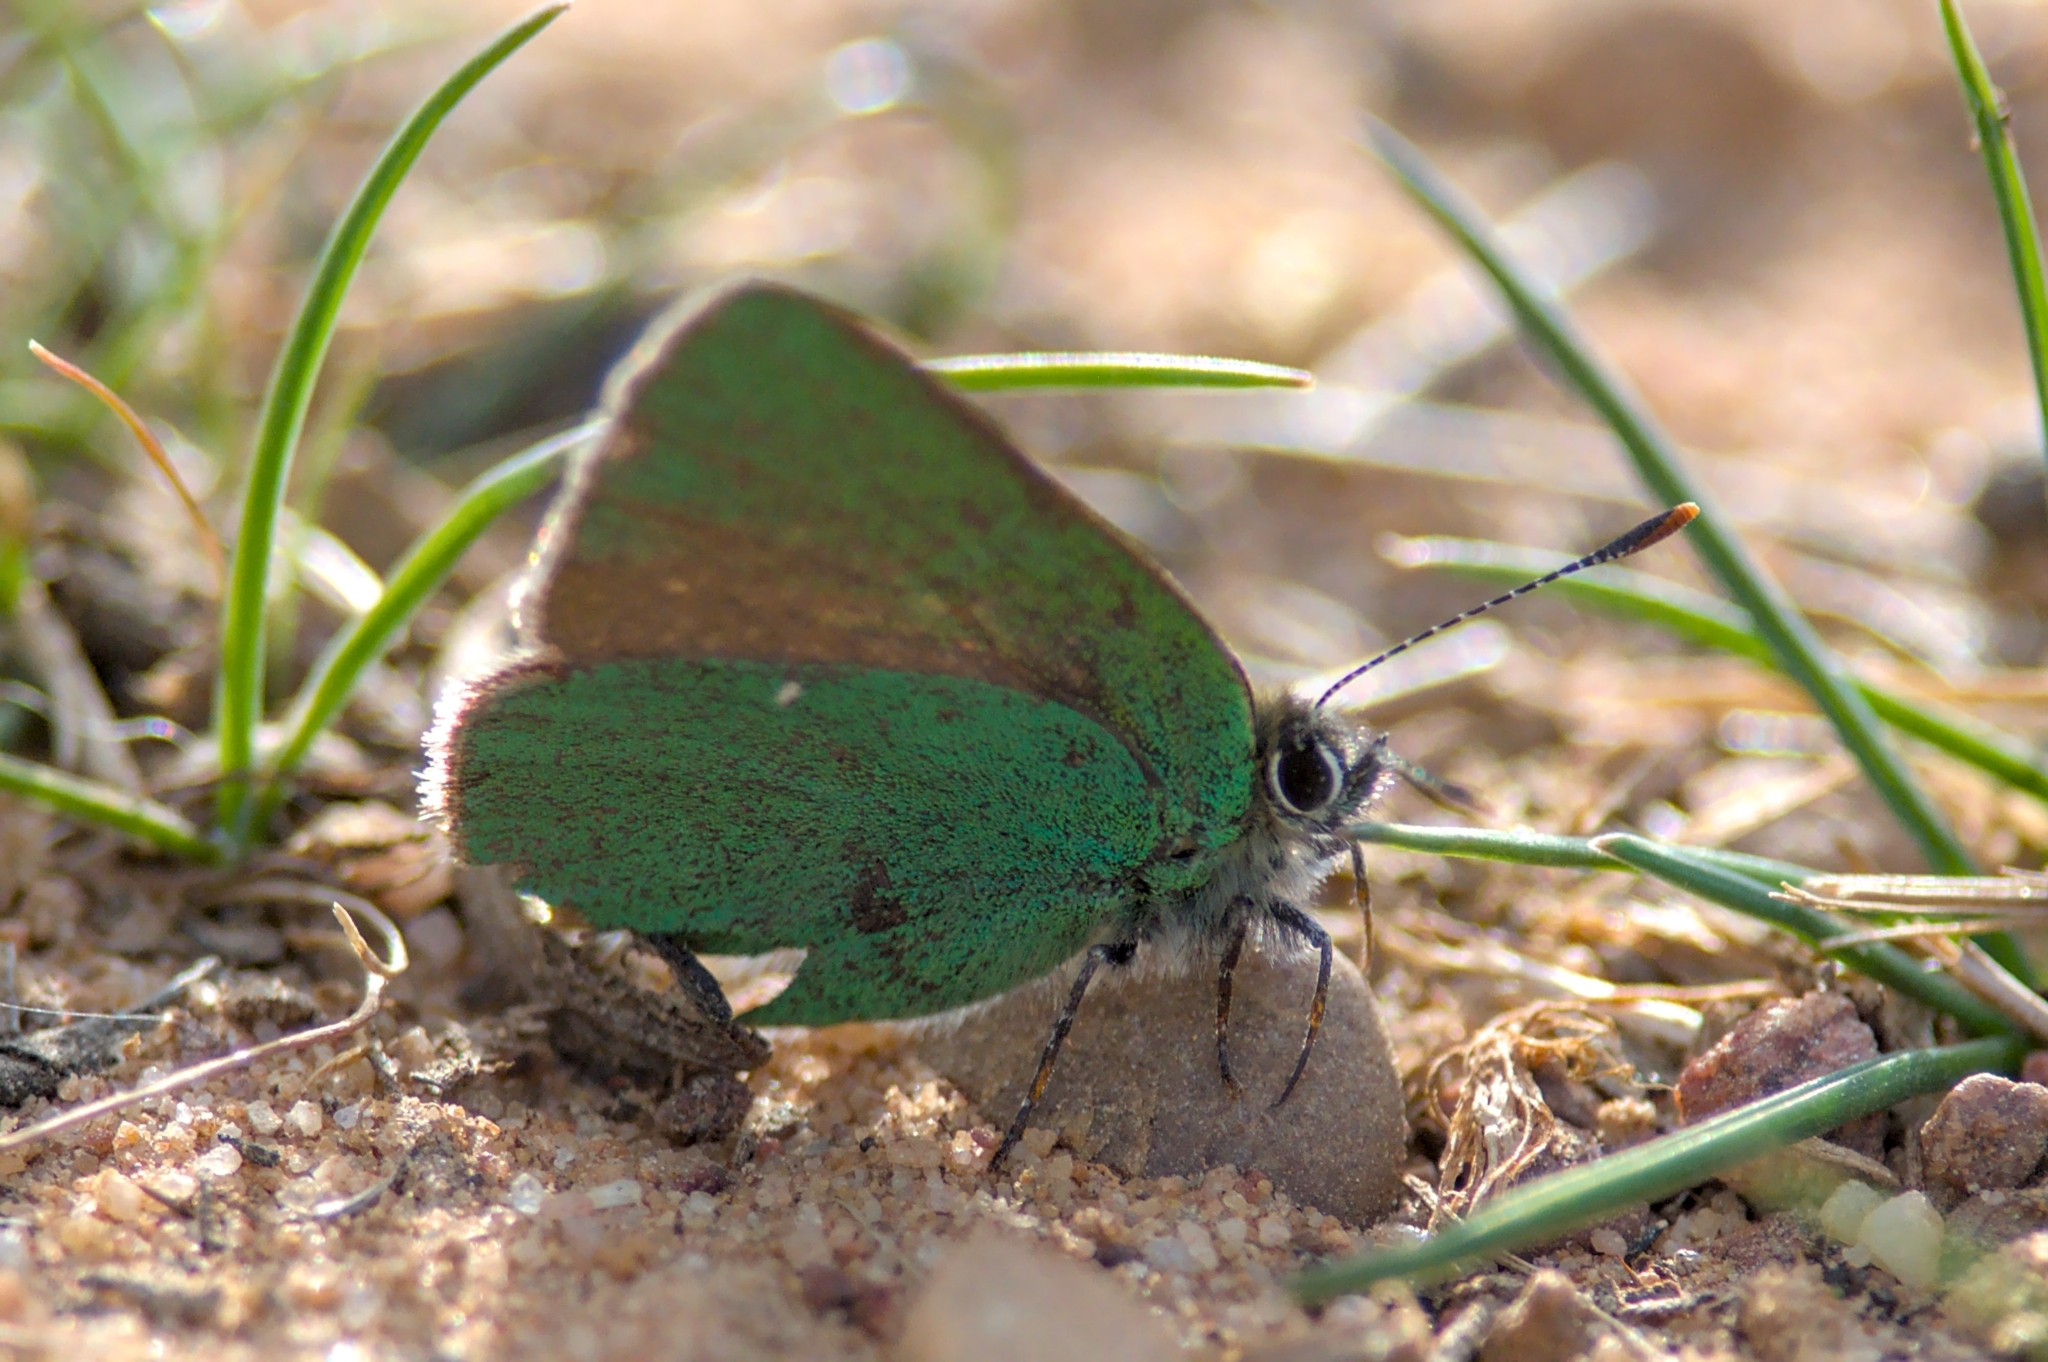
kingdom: Animalia
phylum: Arthropoda
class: Insecta
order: Lepidoptera
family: Lycaenidae
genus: Callophrys
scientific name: Callophrys rubi
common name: Green hairstreak
